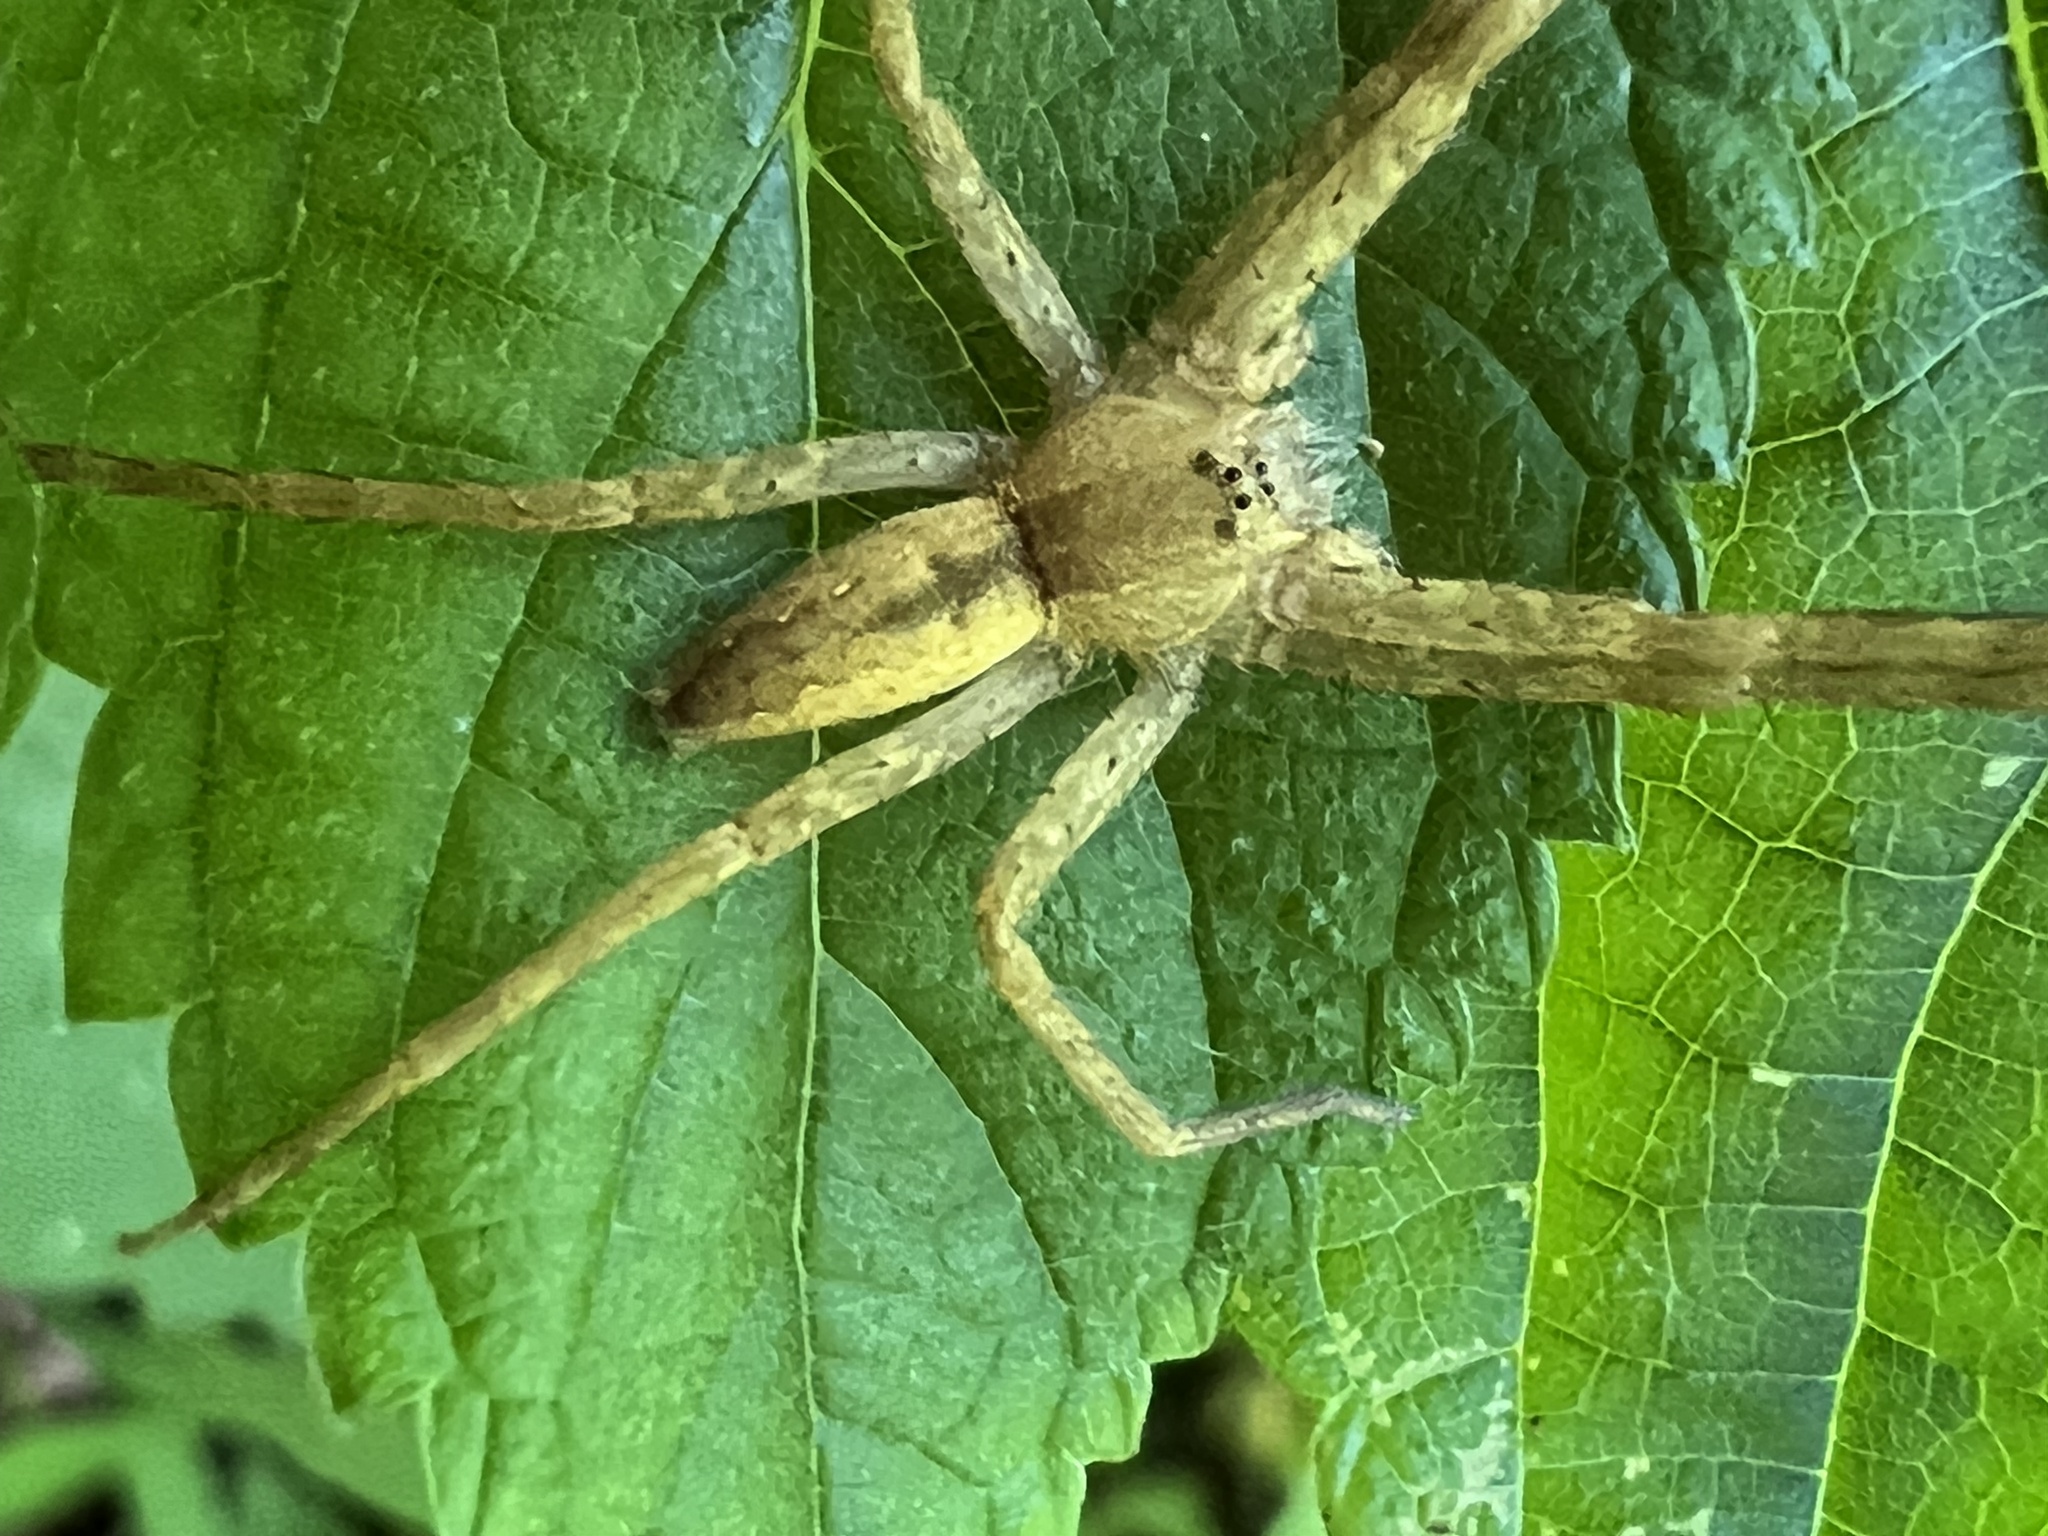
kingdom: Animalia
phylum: Arthropoda
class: Arachnida
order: Araneae
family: Pisauridae
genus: Pisaurina
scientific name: Pisaurina mira
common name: American nursery web spider
